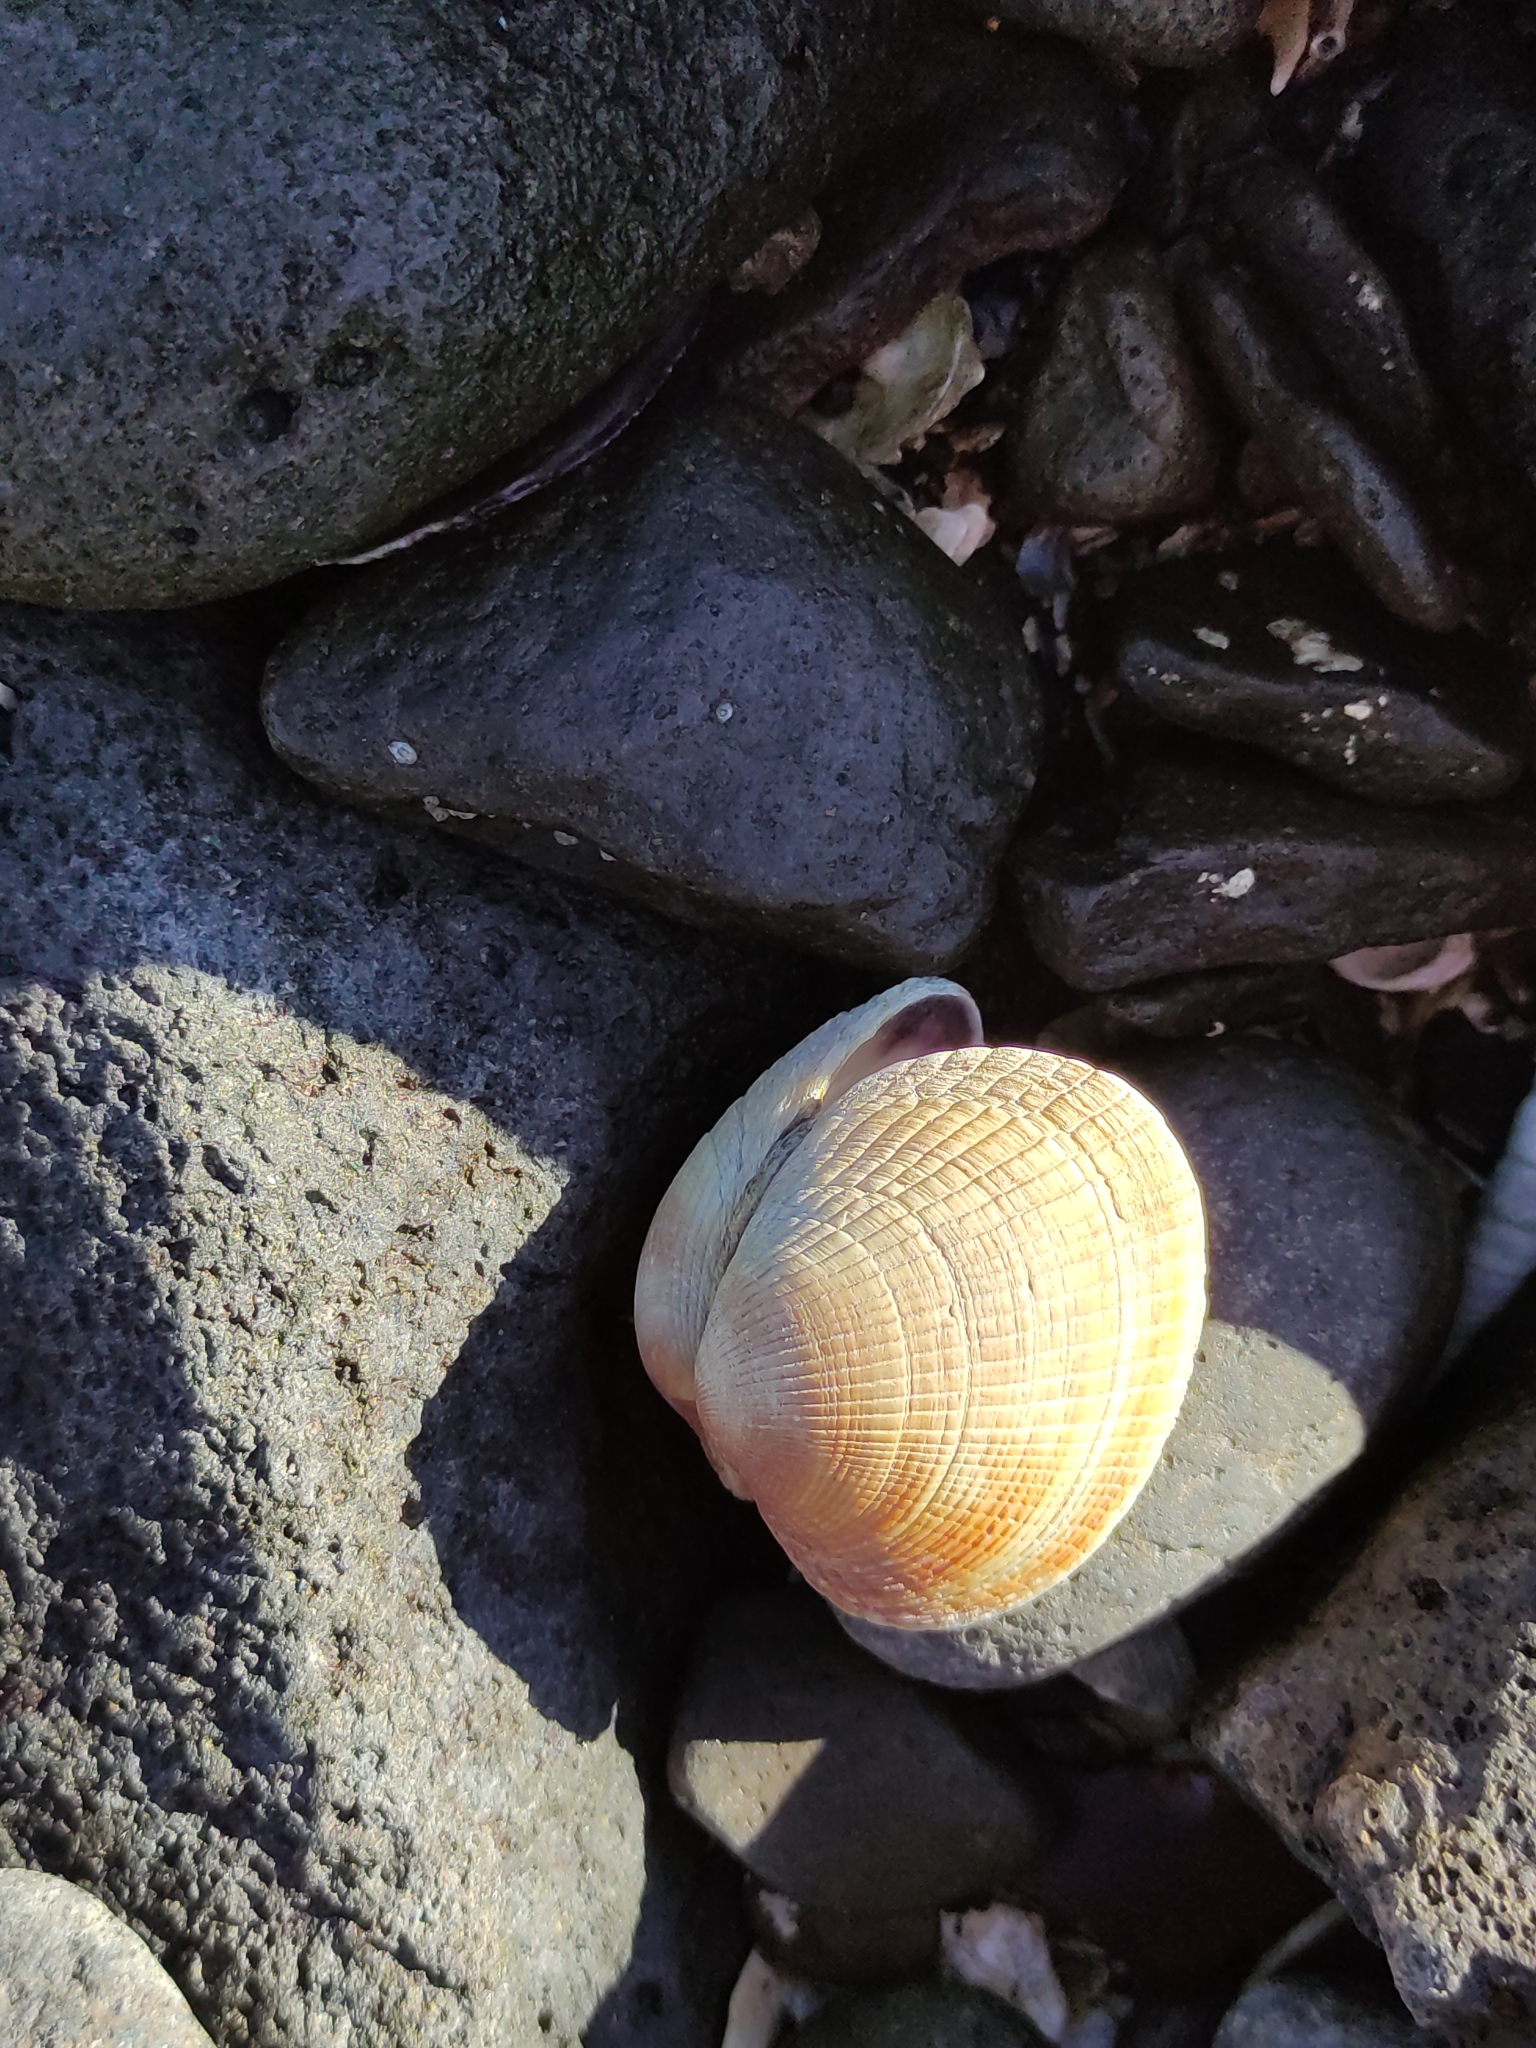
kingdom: Animalia
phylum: Mollusca
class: Bivalvia
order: Venerida
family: Veneridae
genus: Leukoma
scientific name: Leukoma crassicosta
